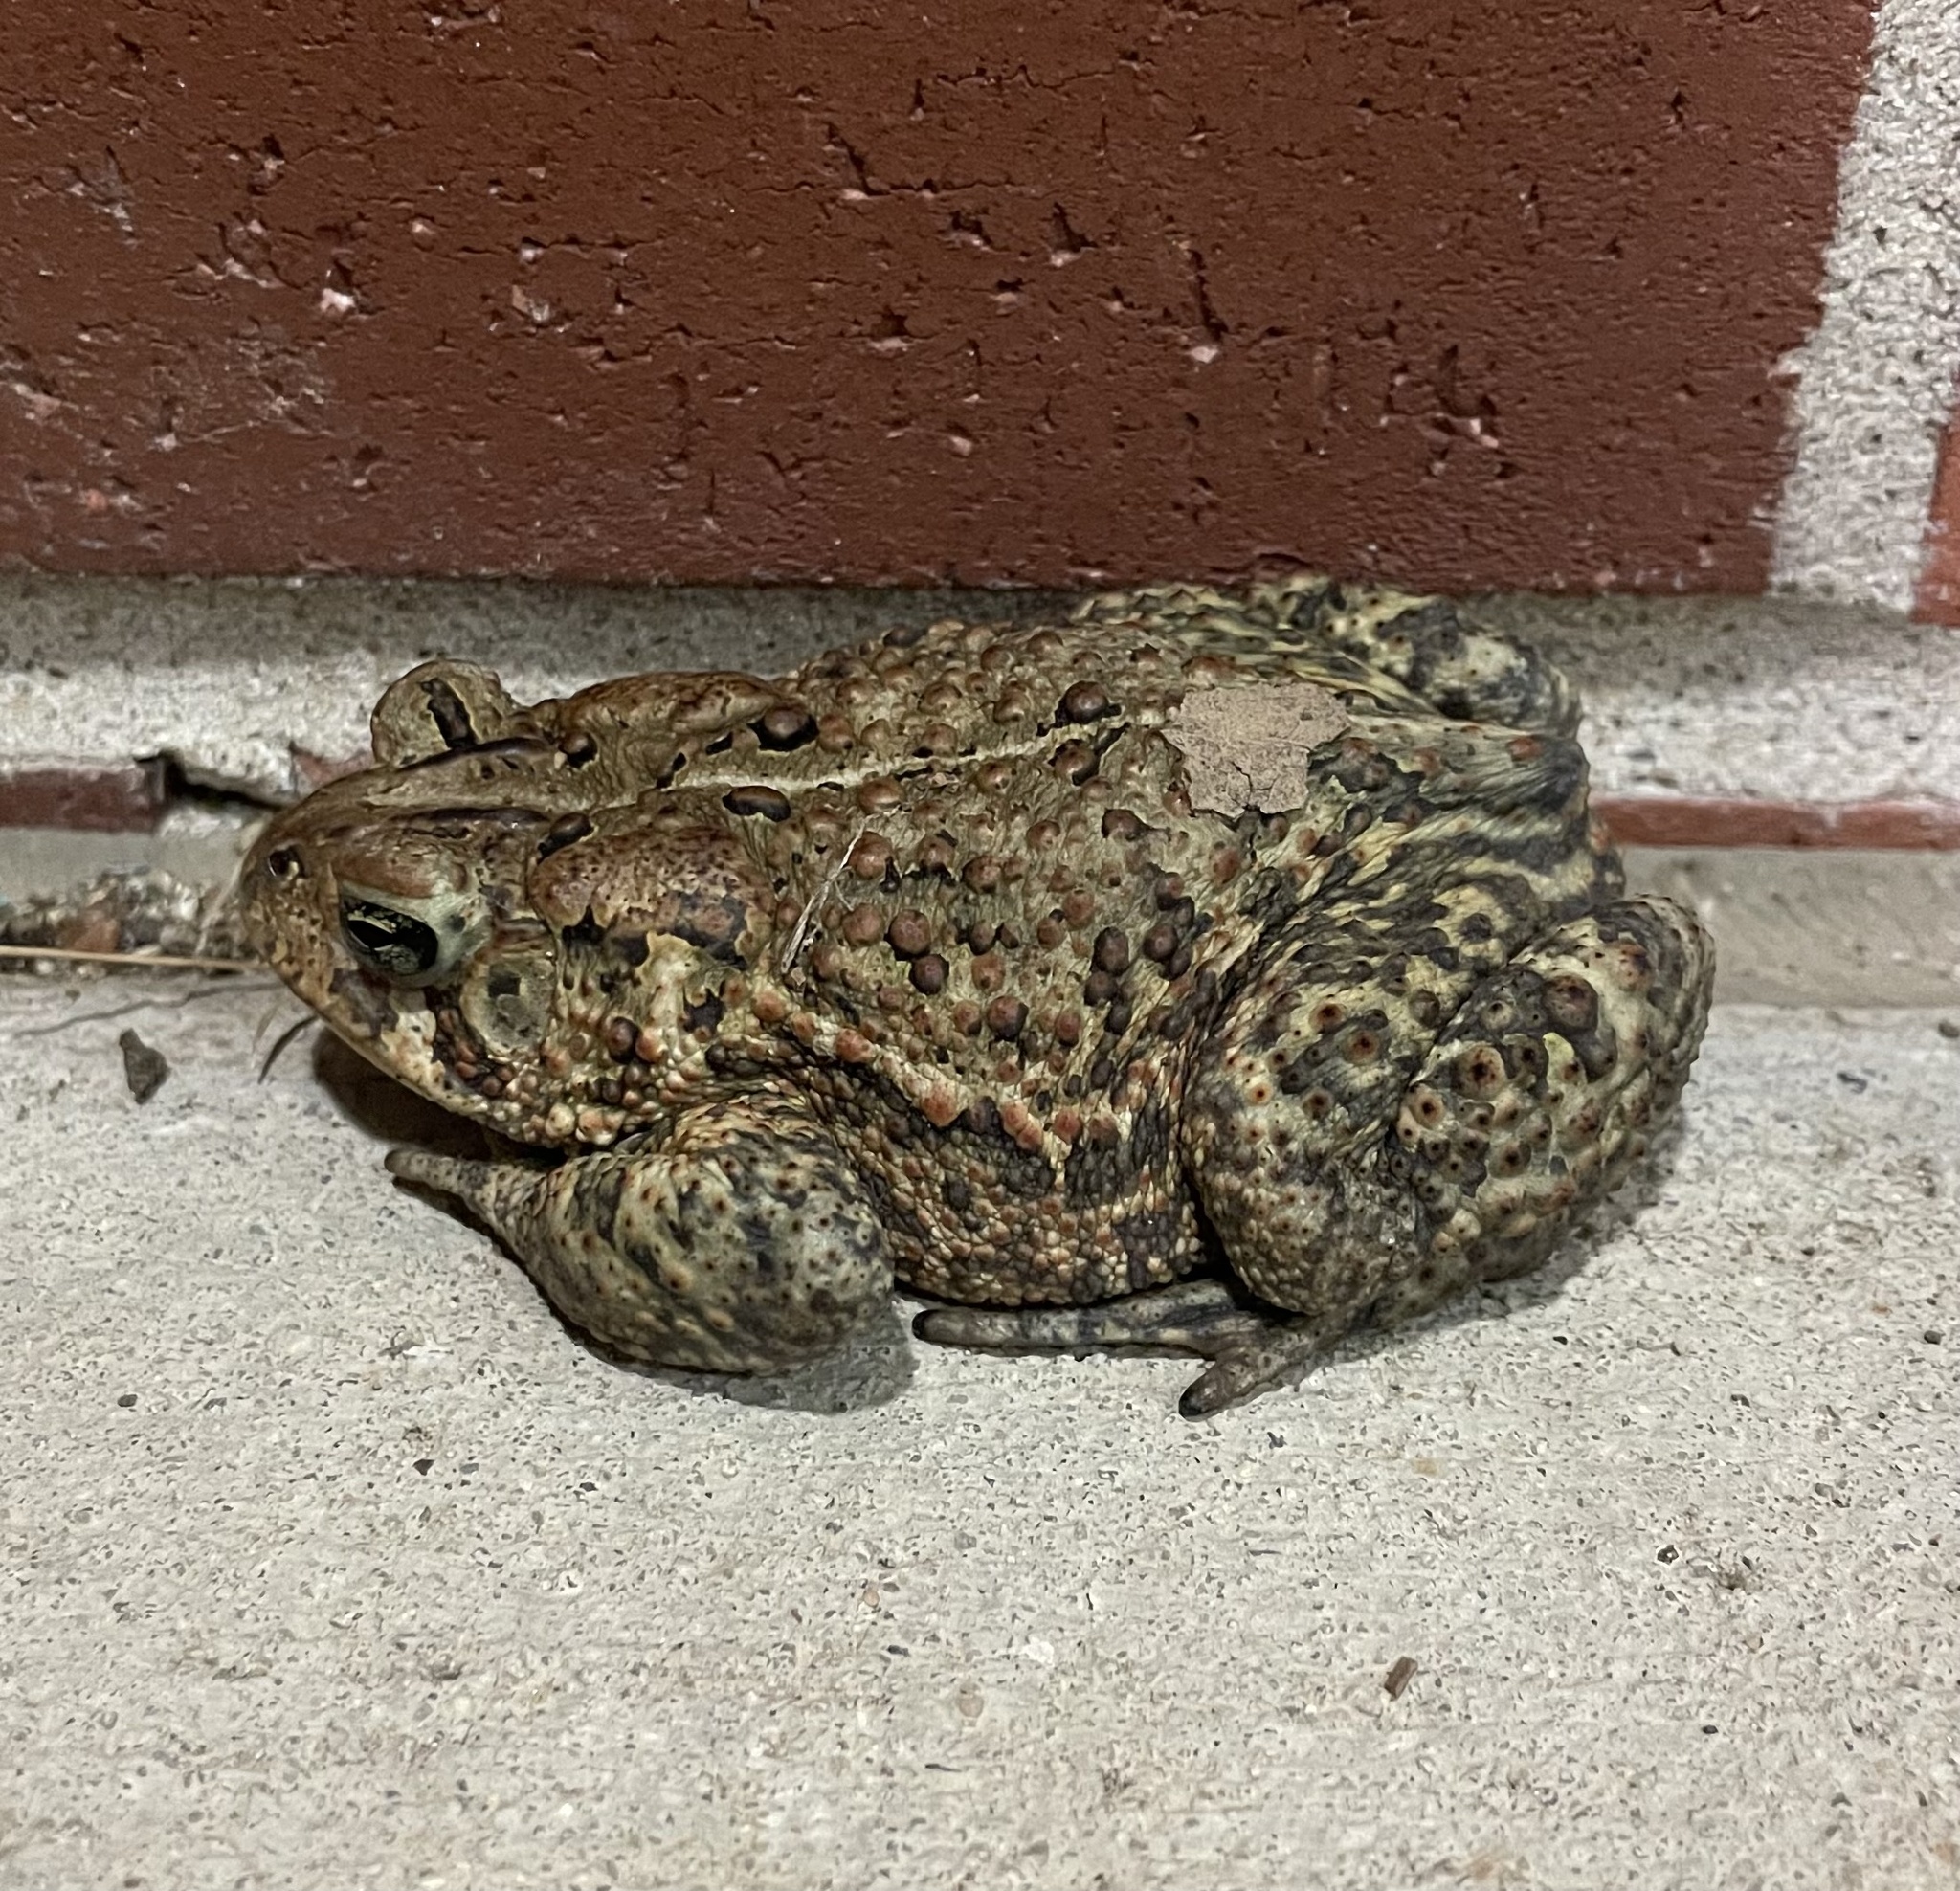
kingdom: Animalia
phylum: Chordata
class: Amphibia
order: Anura
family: Bufonidae
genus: Anaxyrus
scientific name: Anaxyrus americanus
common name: American toad
